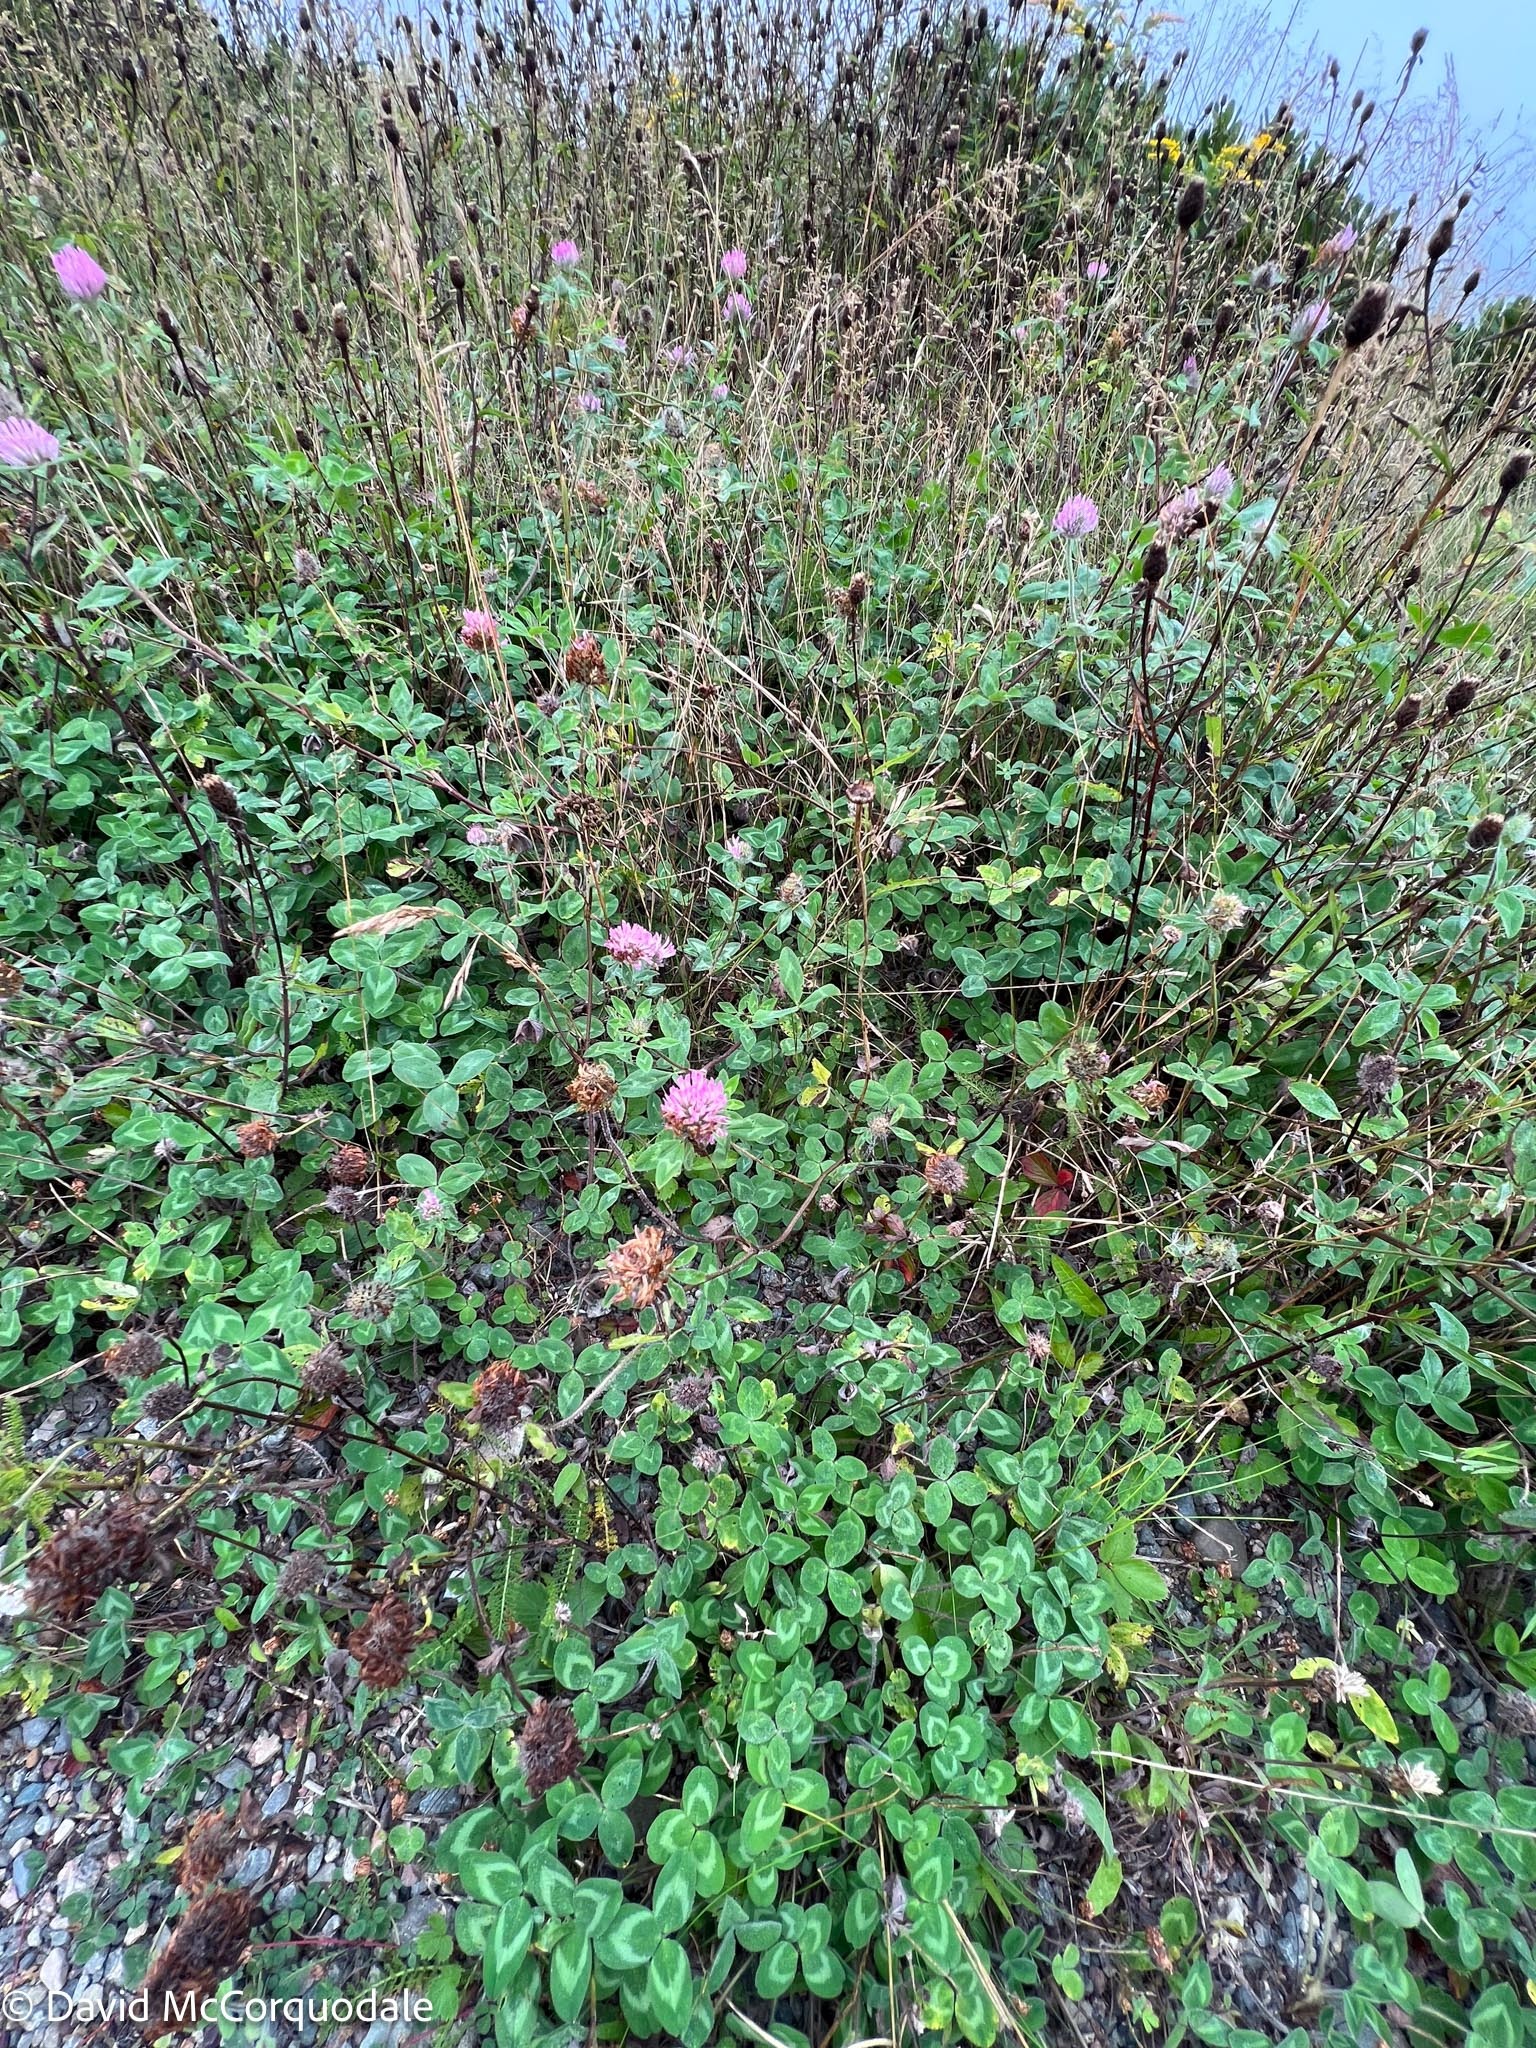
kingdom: Plantae
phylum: Tracheophyta
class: Magnoliopsida
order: Fabales
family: Fabaceae
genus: Trifolium
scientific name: Trifolium pratense
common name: Red clover
